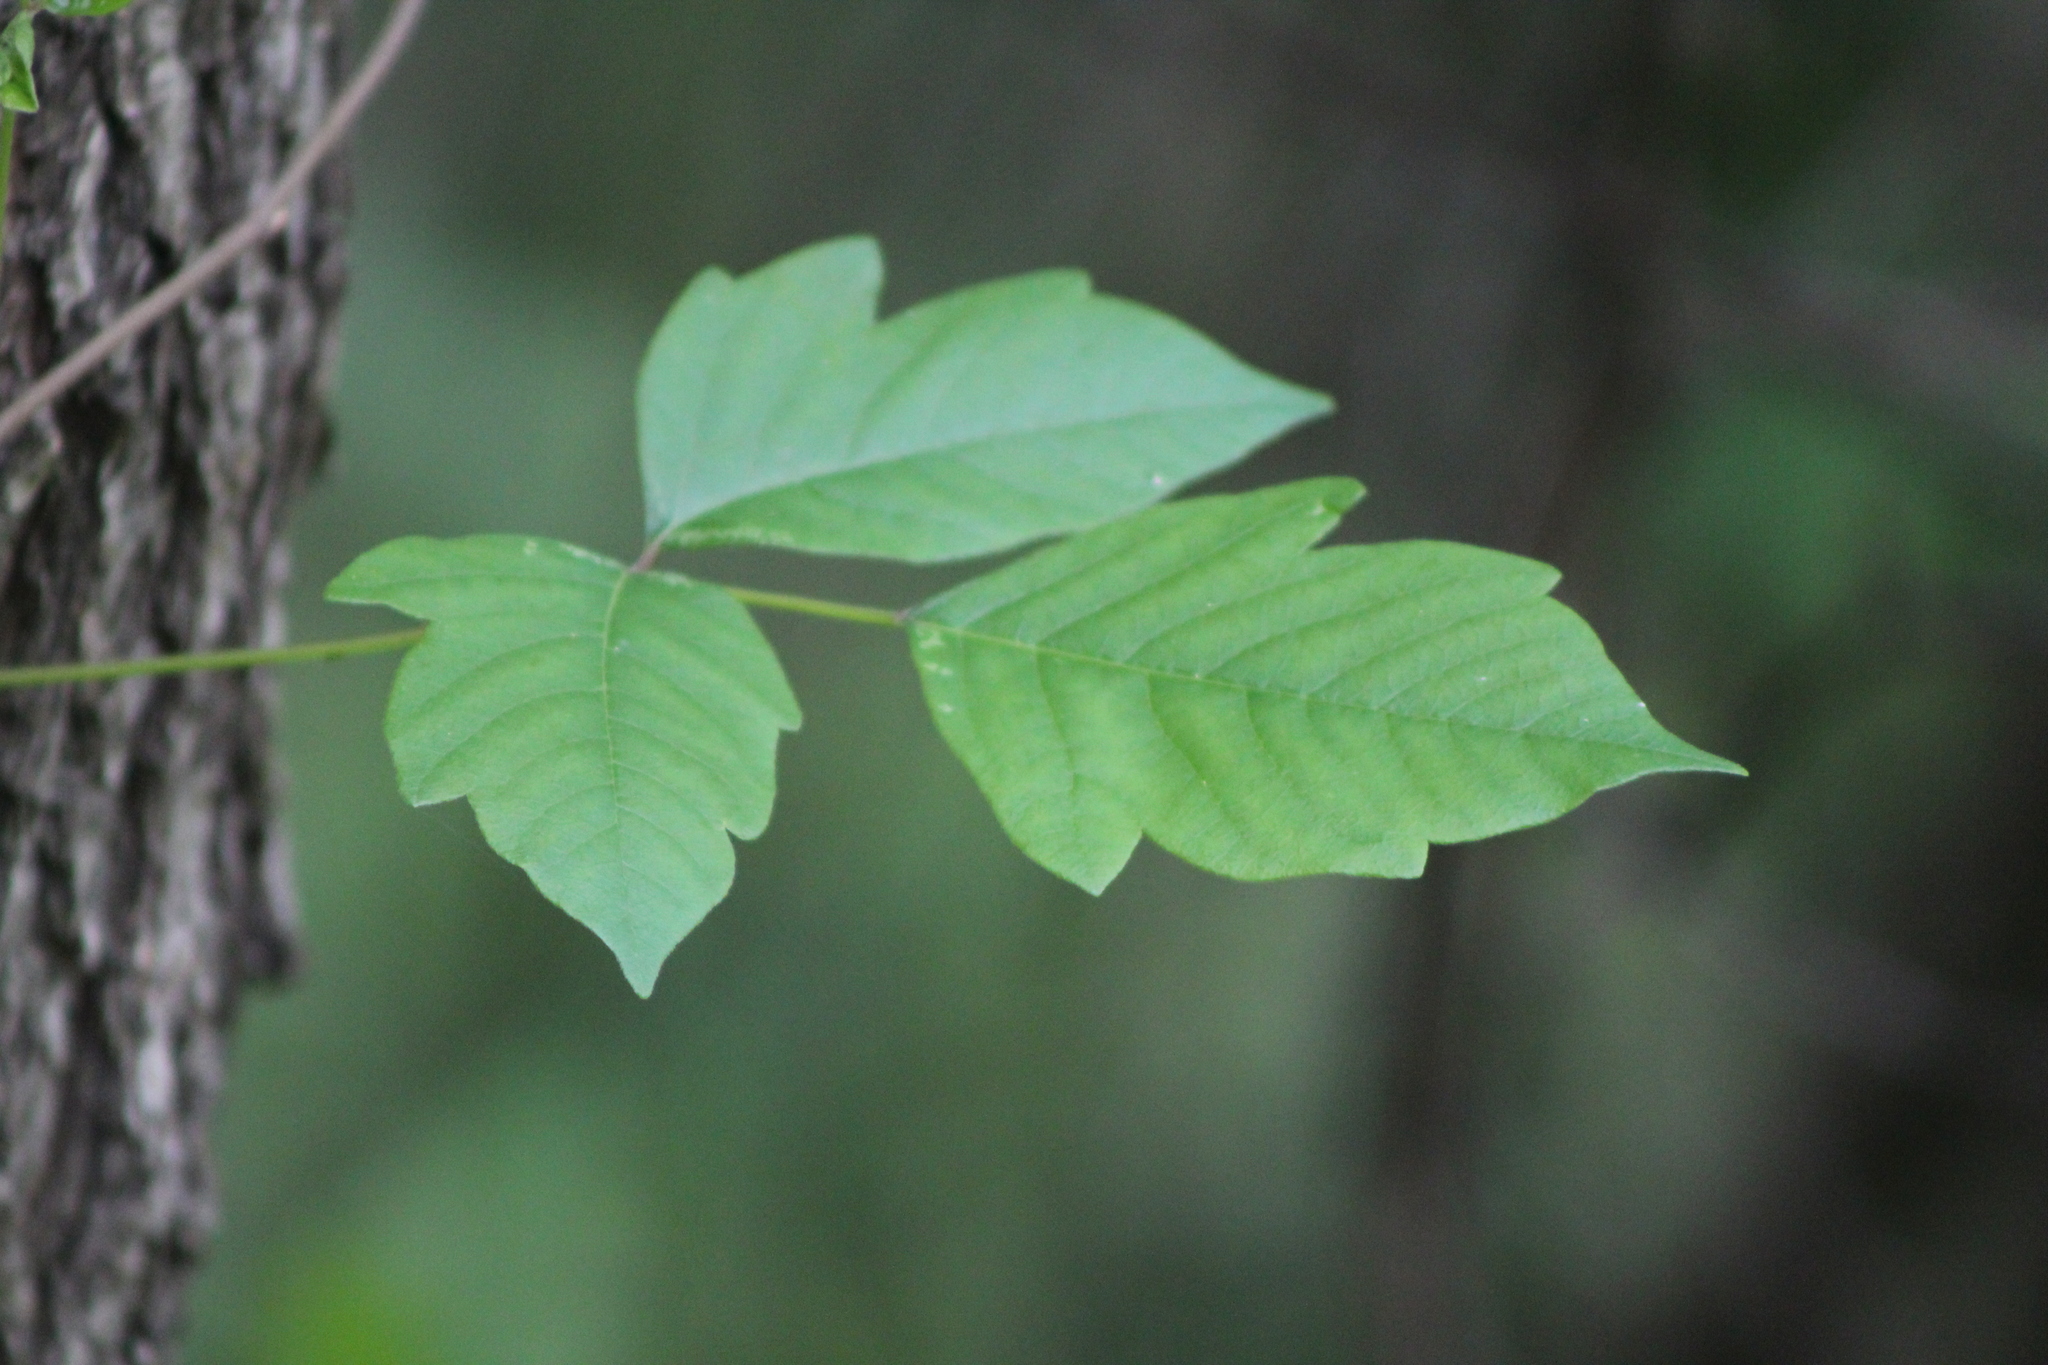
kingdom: Plantae
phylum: Tracheophyta
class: Magnoliopsida
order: Sapindales
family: Anacardiaceae
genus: Toxicodendron
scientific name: Toxicodendron radicans
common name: Poison ivy
